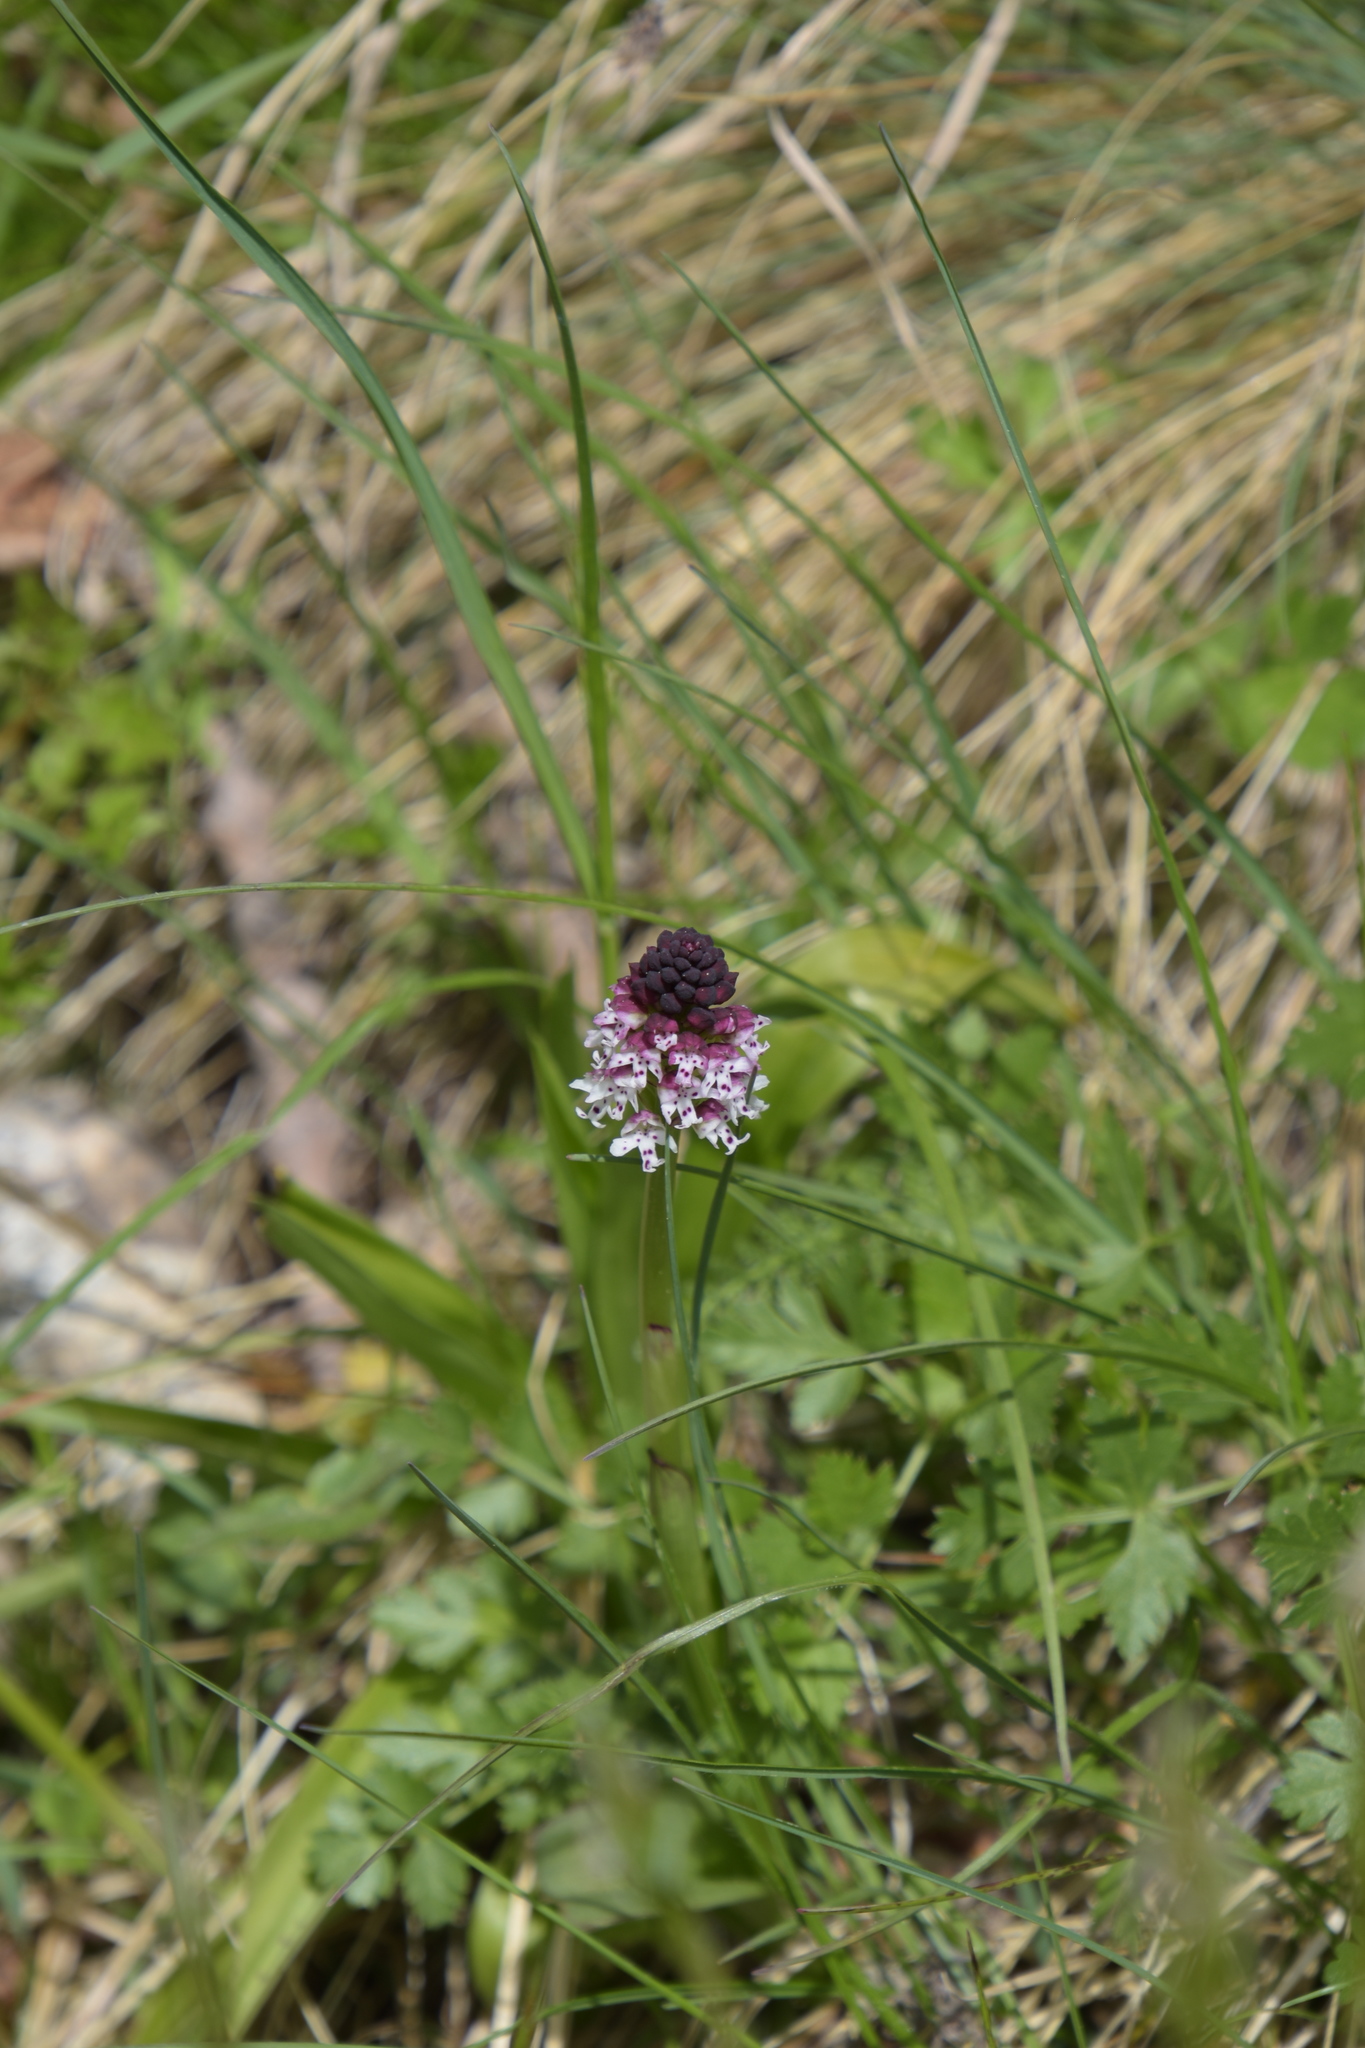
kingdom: Plantae
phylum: Tracheophyta
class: Liliopsida
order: Asparagales
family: Orchidaceae
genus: Neotinea
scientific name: Neotinea ustulata
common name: Burnt orchid
